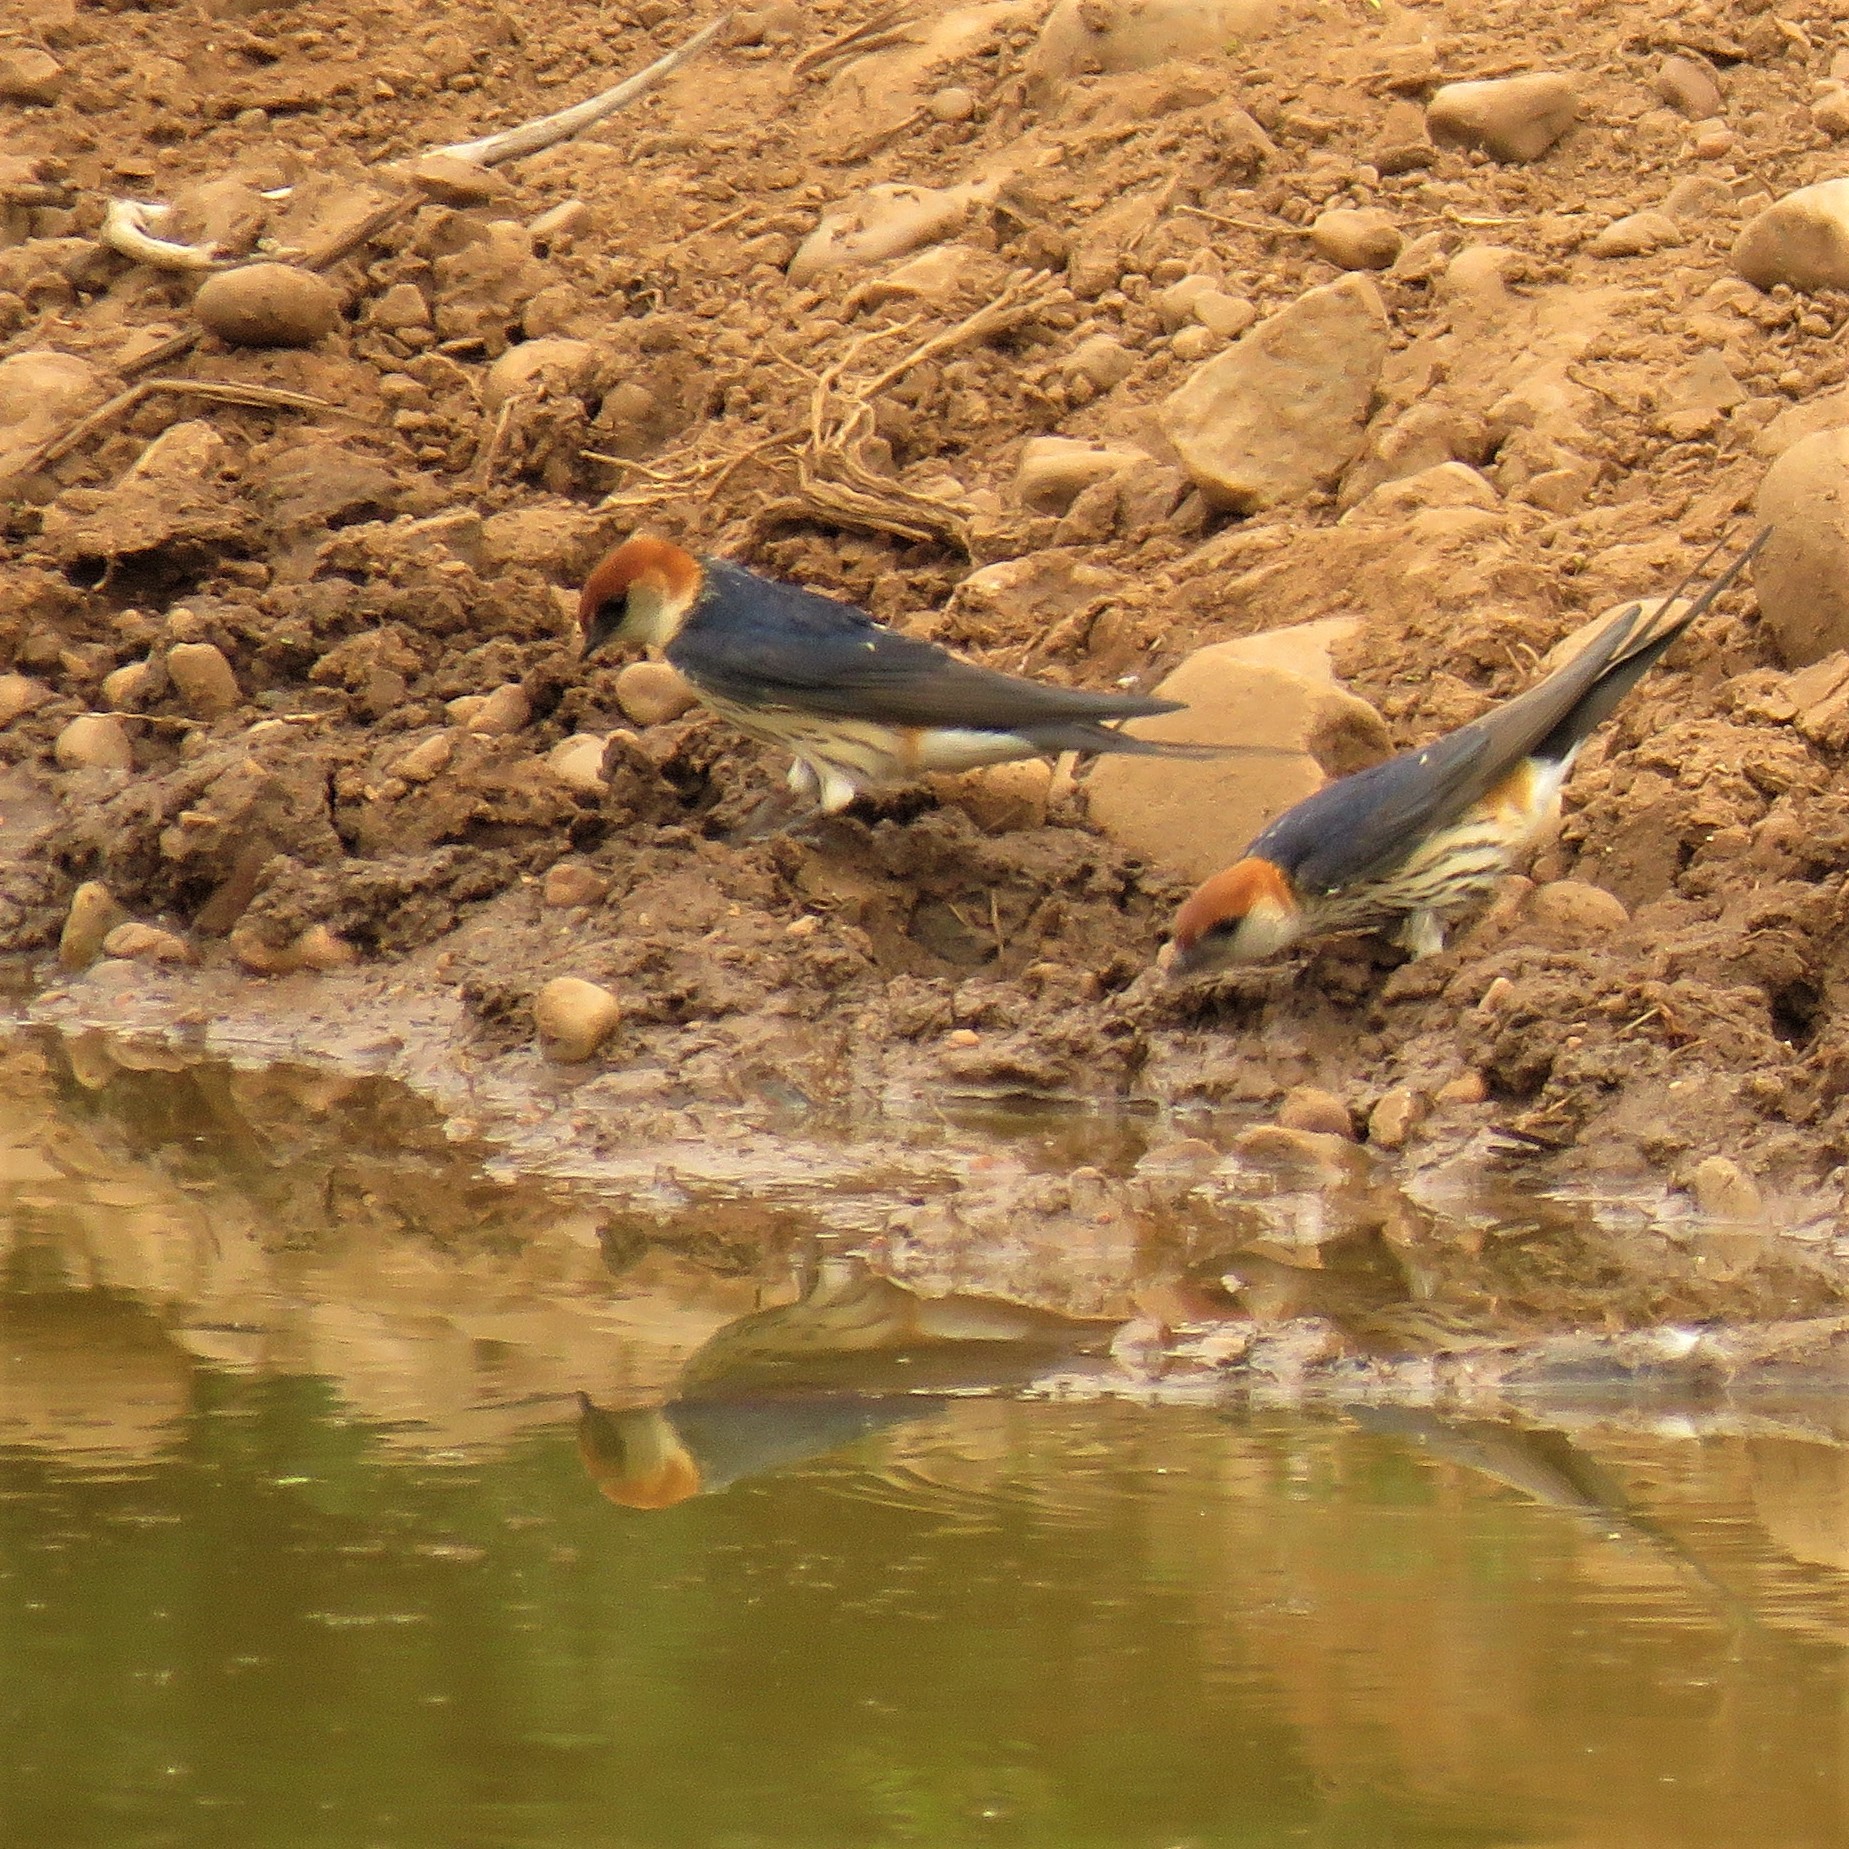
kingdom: Animalia
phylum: Chordata
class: Aves
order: Passeriformes
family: Hirundinidae
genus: Cecropis
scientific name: Cecropis cucullata
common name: Greater striped-swallow
